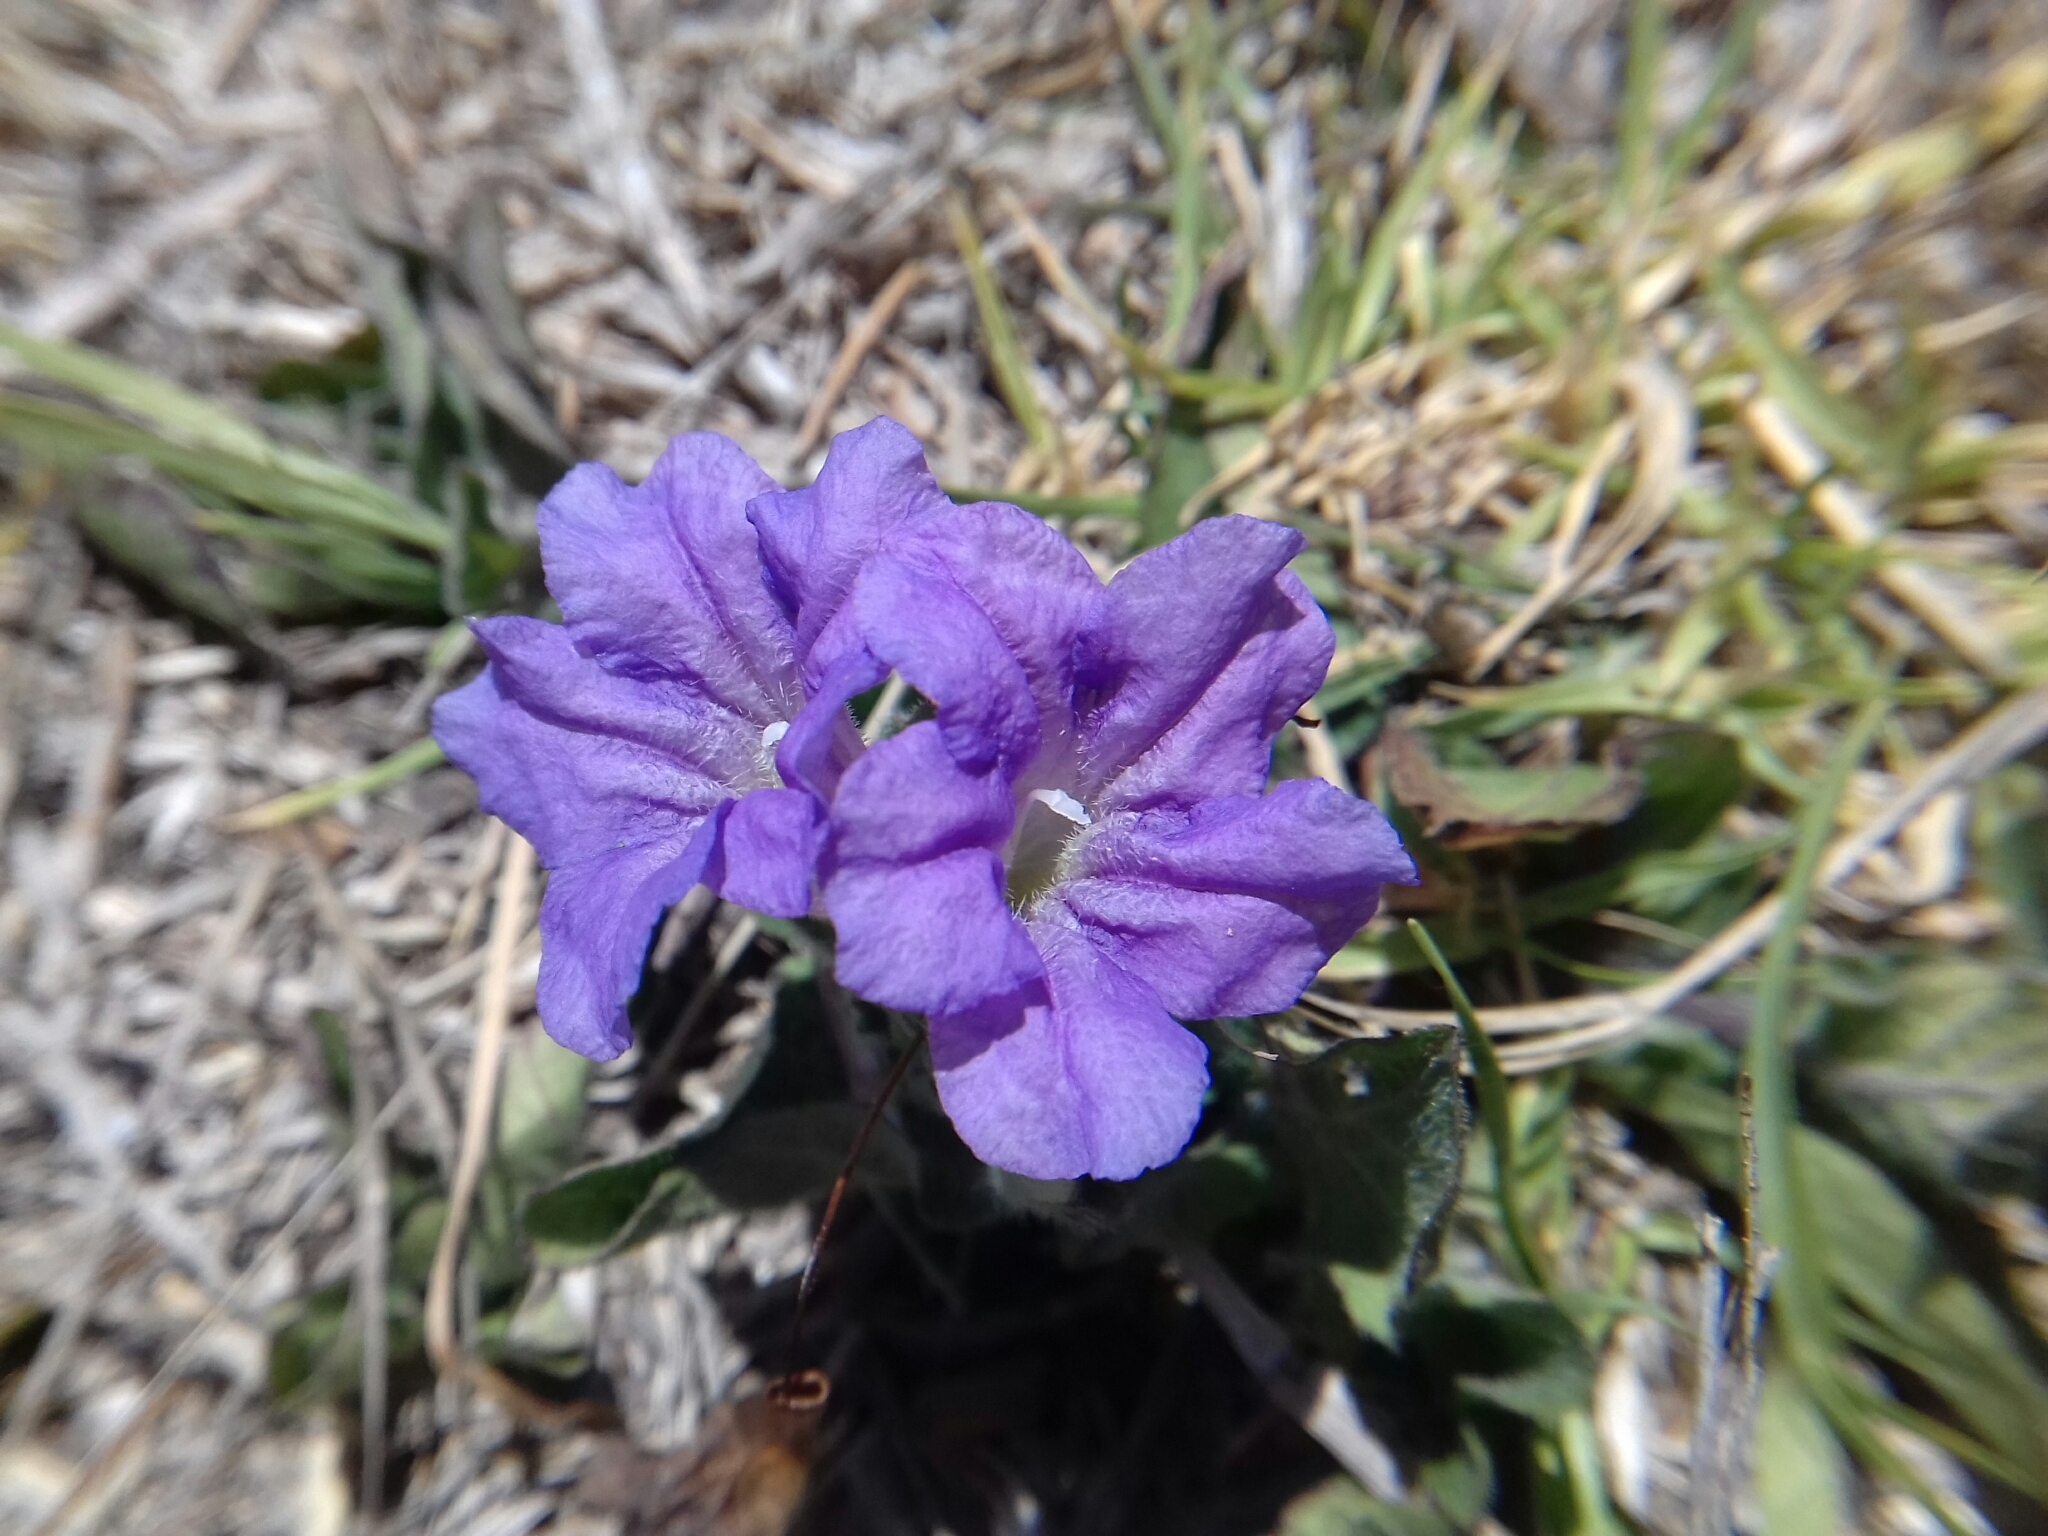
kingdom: Plantae
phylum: Tracheophyta
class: Magnoliopsida
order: Lamiales
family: Acanthaceae
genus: Ruellia
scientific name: Ruellia lactea
